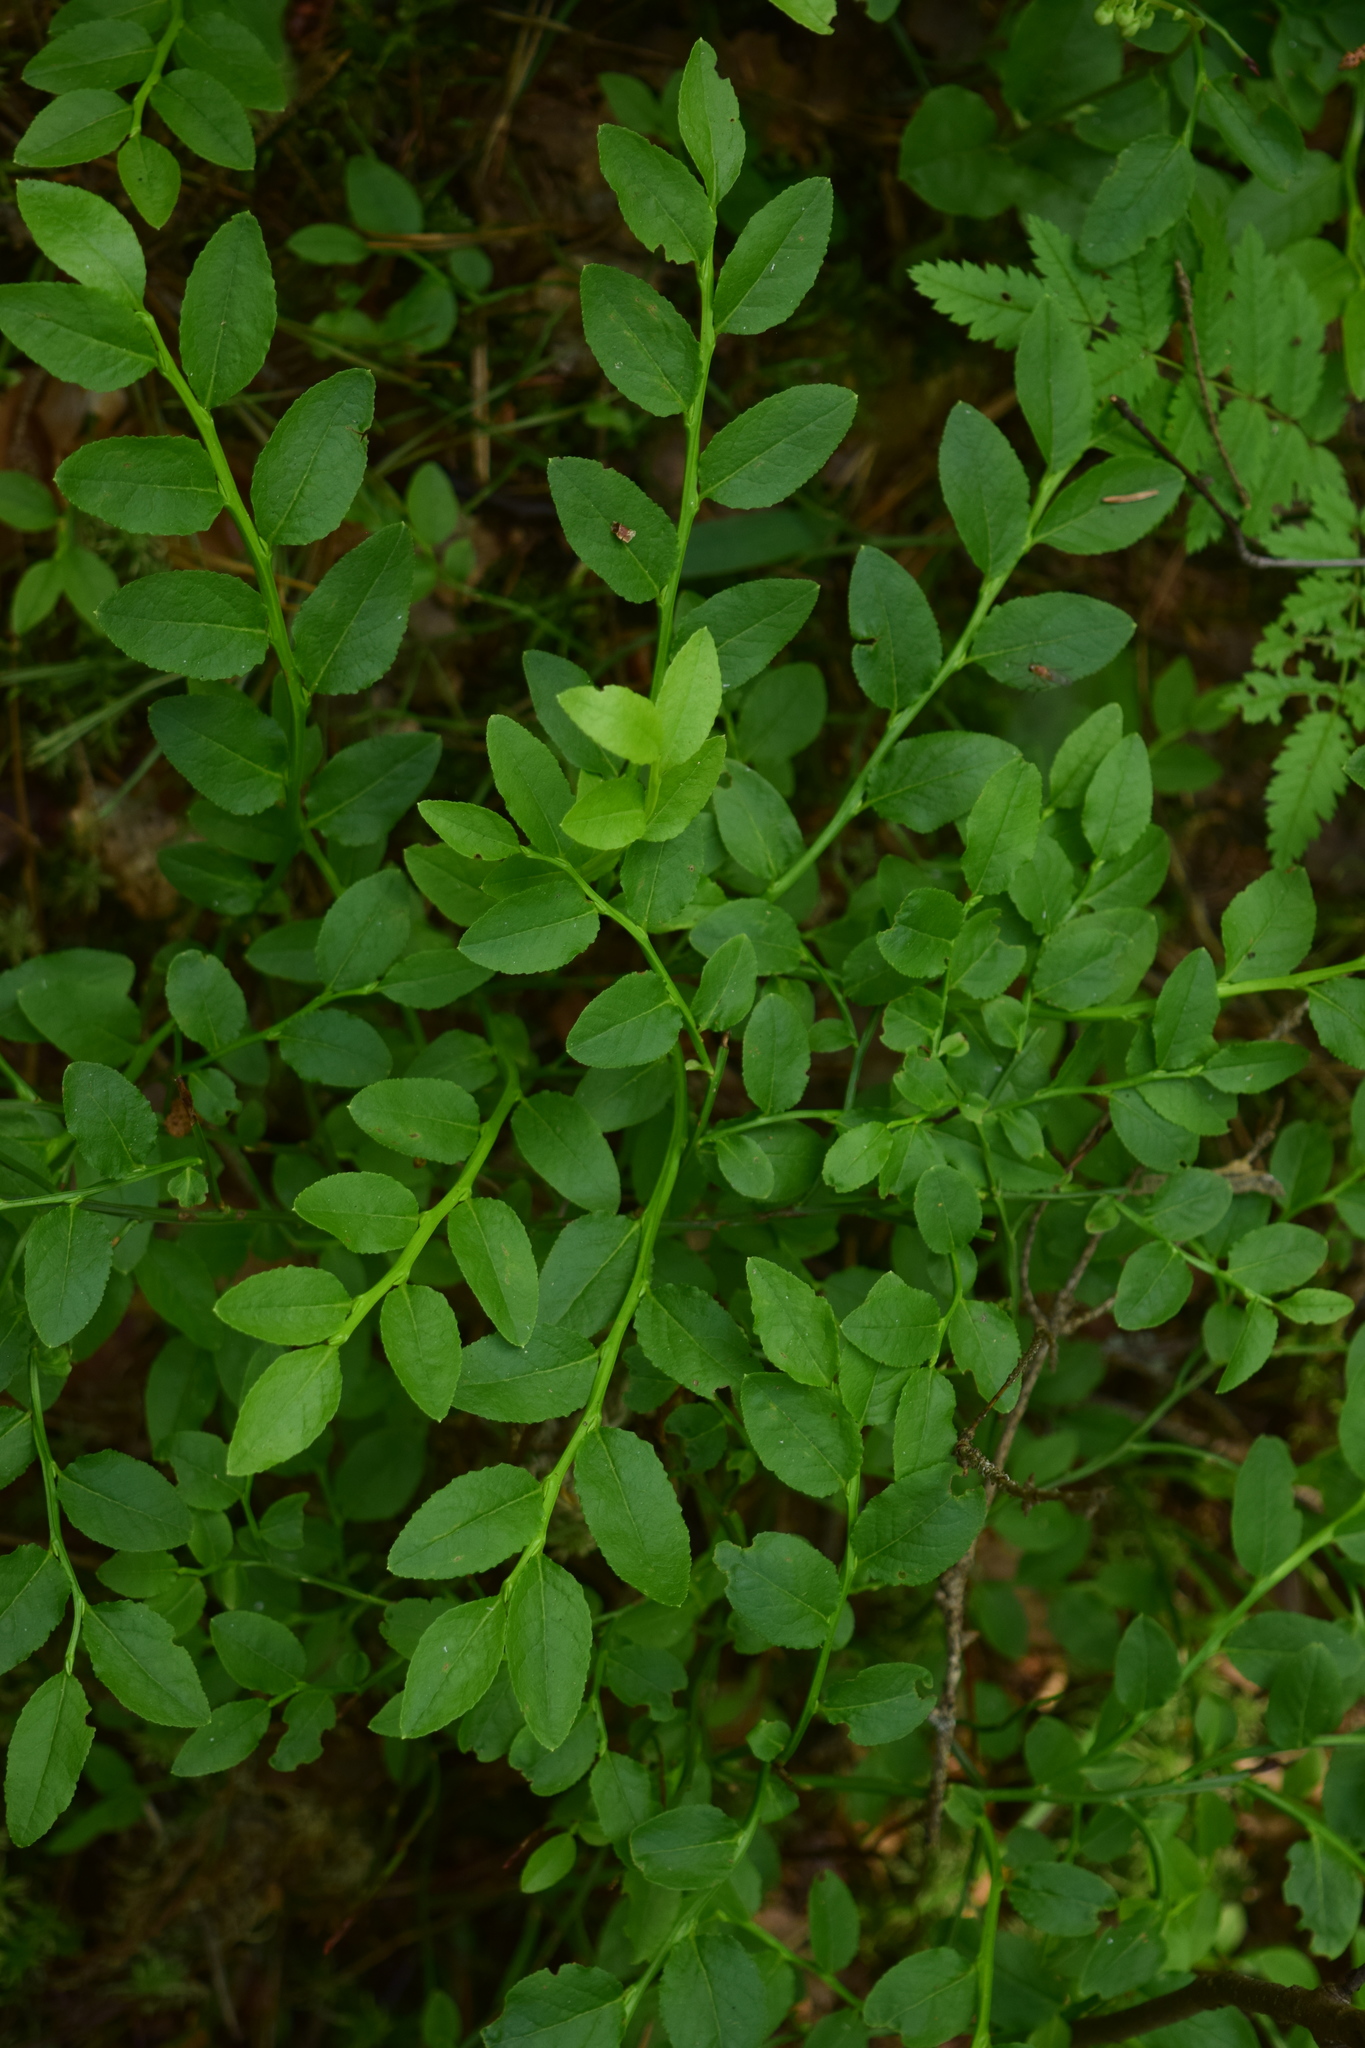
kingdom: Plantae
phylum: Tracheophyta
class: Magnoliopsida
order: Ericales
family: Ericaceae
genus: Vaccinium
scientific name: Vaccinium myrtillus
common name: Bilberry
